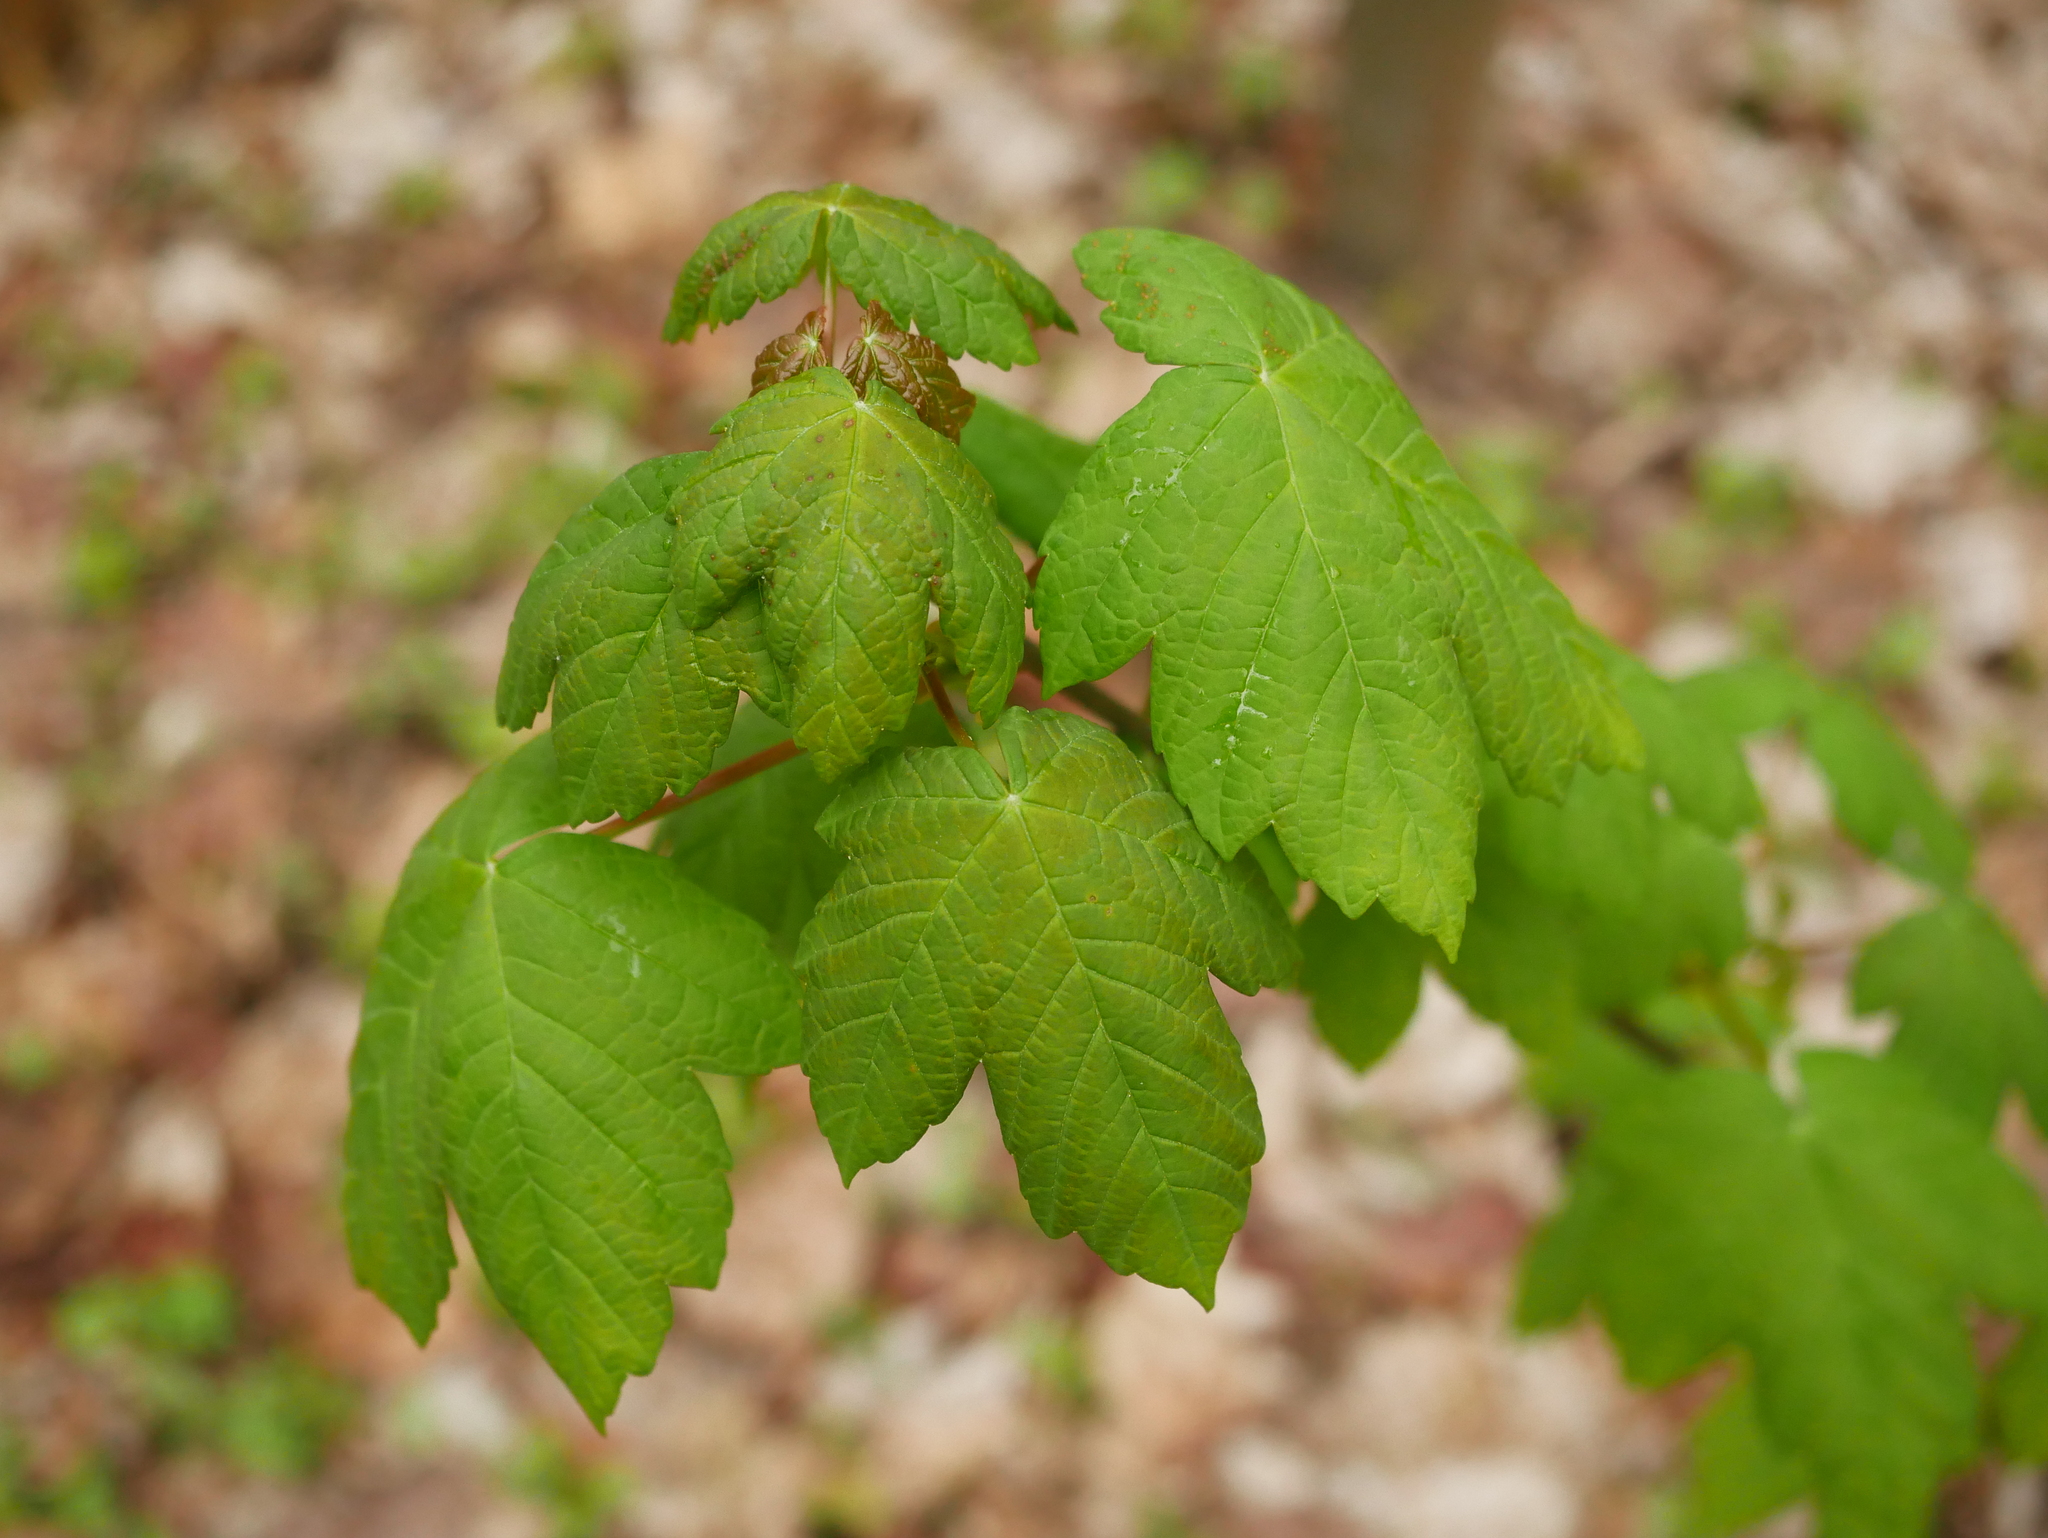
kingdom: Plantae
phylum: Tracheophyta
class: Magnoliopsida
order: Sapindales
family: Sapindaceae
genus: Acer
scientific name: Acer pseudoplatanus
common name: Sycamore
